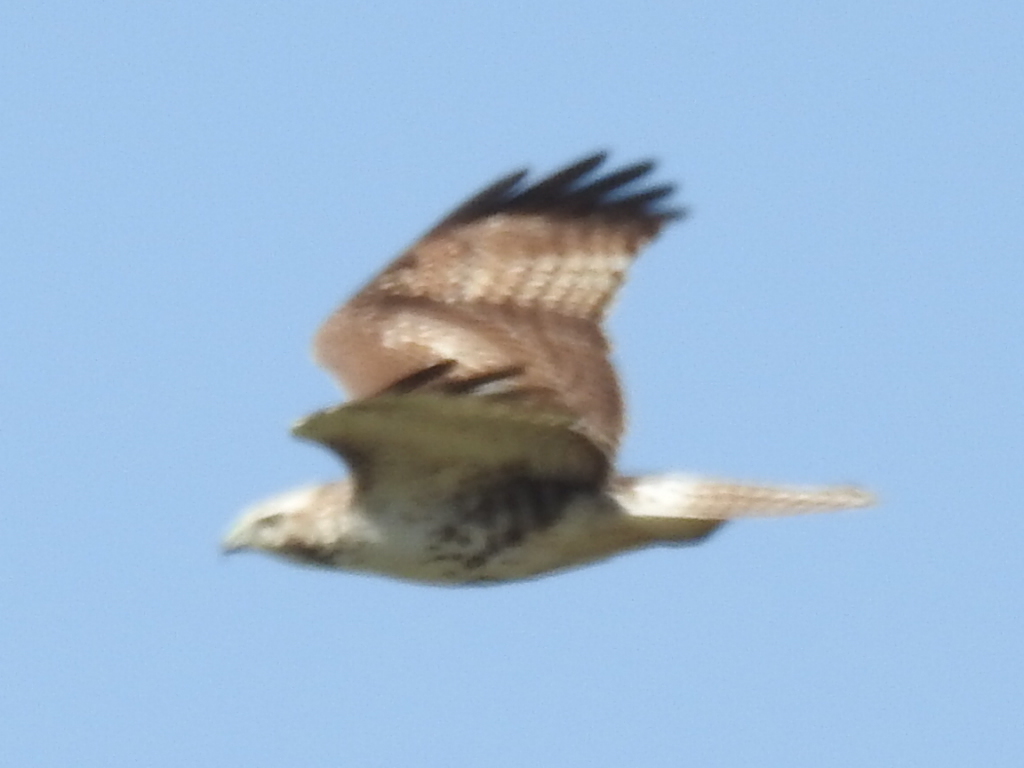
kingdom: Animalia
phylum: Chordata
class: Aves
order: Accipitriformes
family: Accipitridae
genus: Buteo
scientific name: Buteo jamaicensis
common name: Red-tailed hawk
